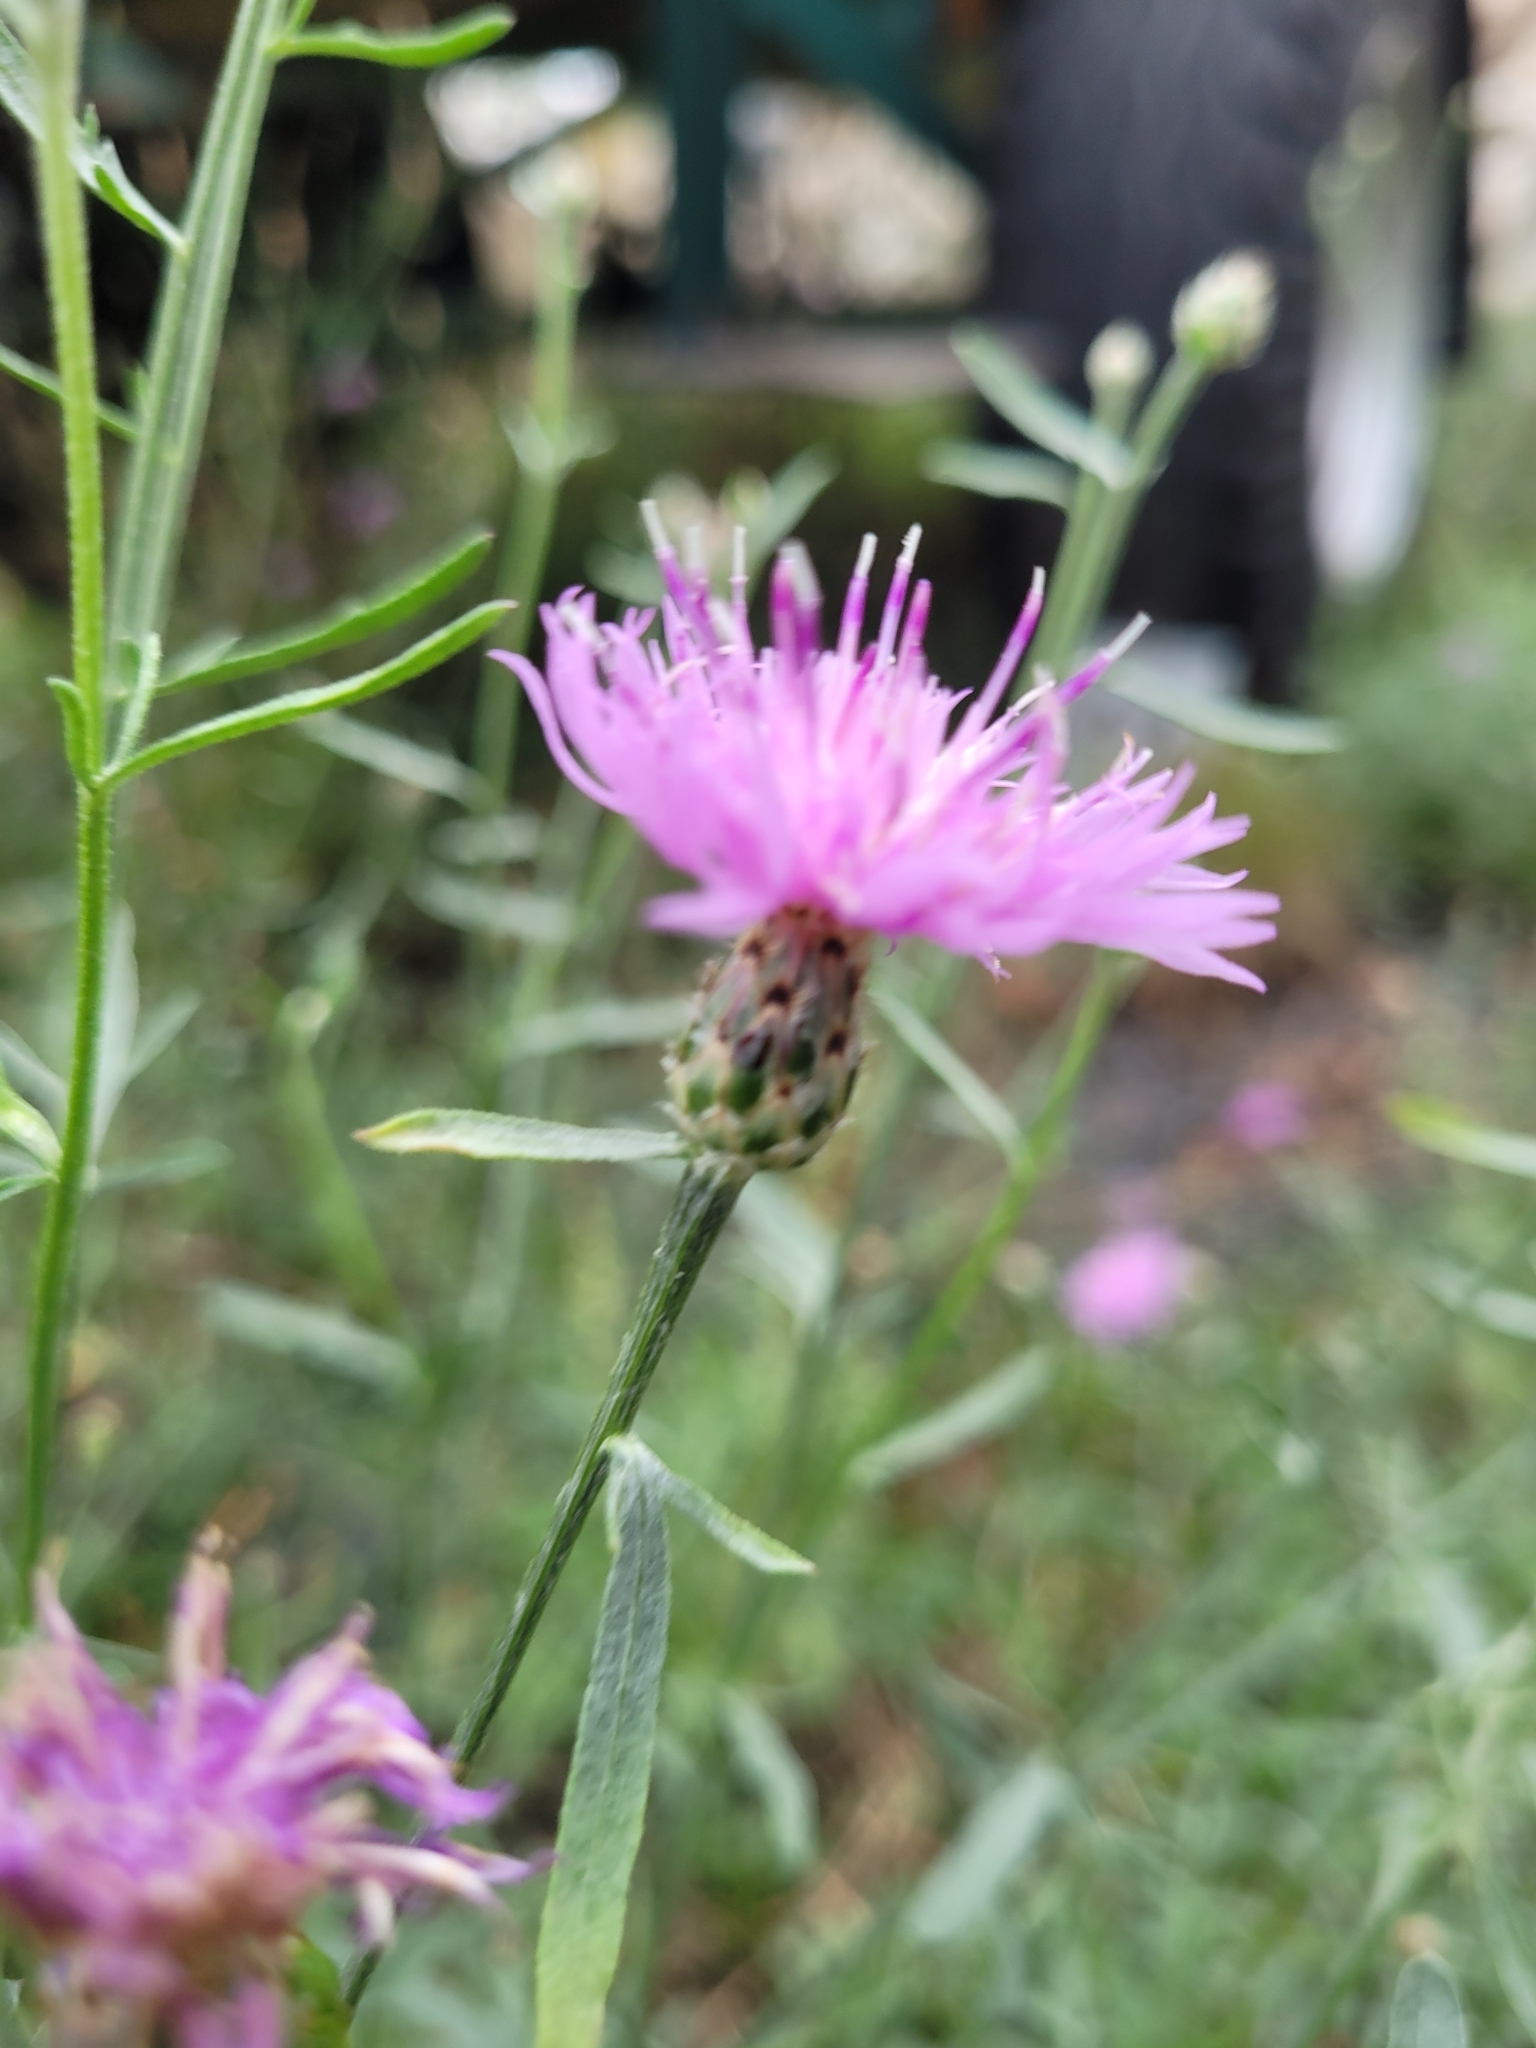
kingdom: Plantae
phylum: Tracheophyta
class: Magnoliopsida
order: Asterales
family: Asteraceae
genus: Centaurea
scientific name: Centaurea stoebe
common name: Spotted knapweed
